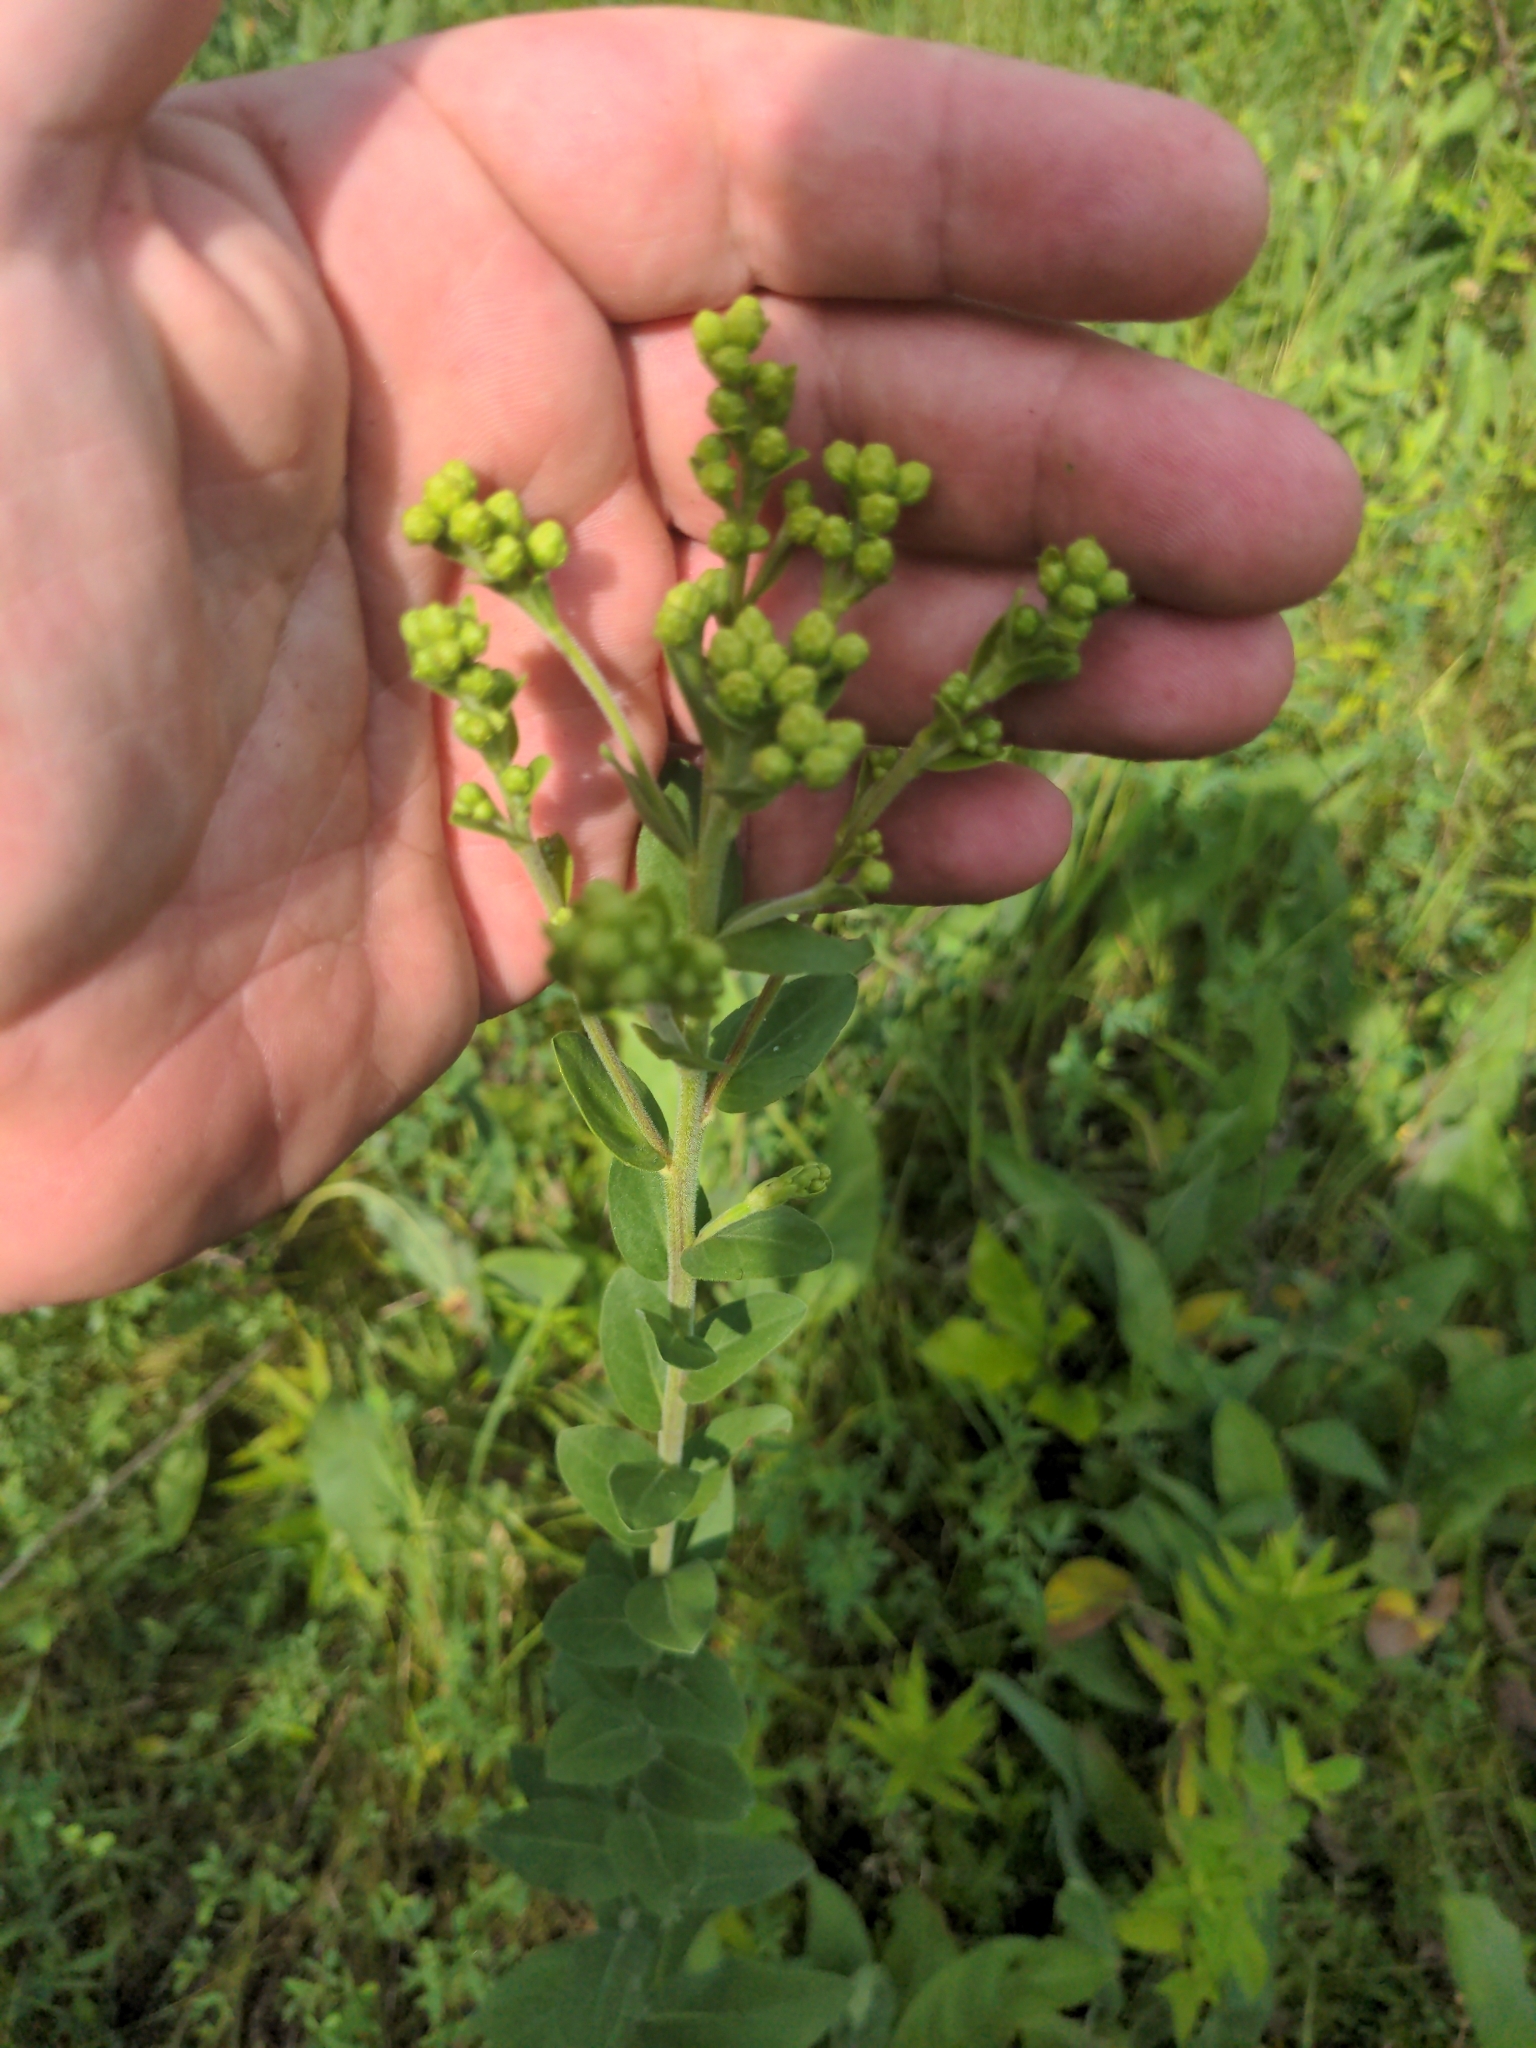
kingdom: Plantae
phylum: Tracheophyta
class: Magnoliopsida
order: Asterales
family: Asteraceae
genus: Solidago
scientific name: Solidago rigida
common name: Rigid goldenrod
